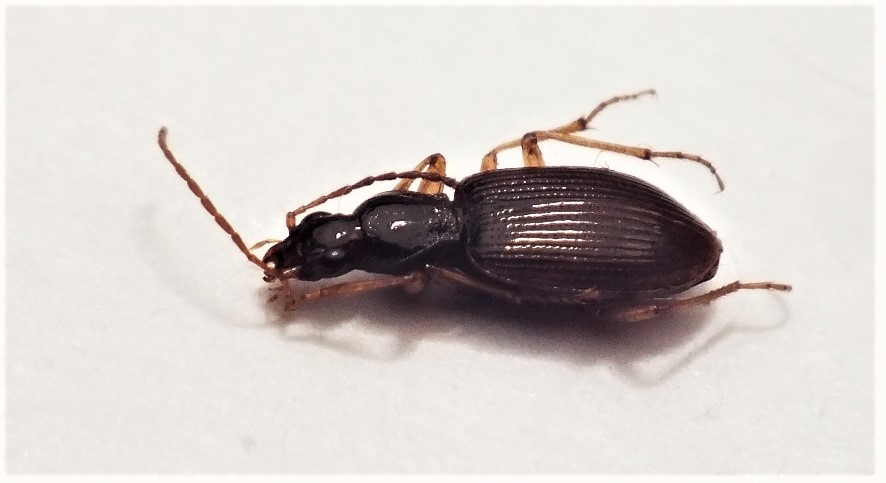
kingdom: Animalia
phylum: Arthropoda
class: Insecta
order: Coleoptera
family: Carabidae
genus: Oxypselaphus
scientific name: Oxypselaphus obscurus
